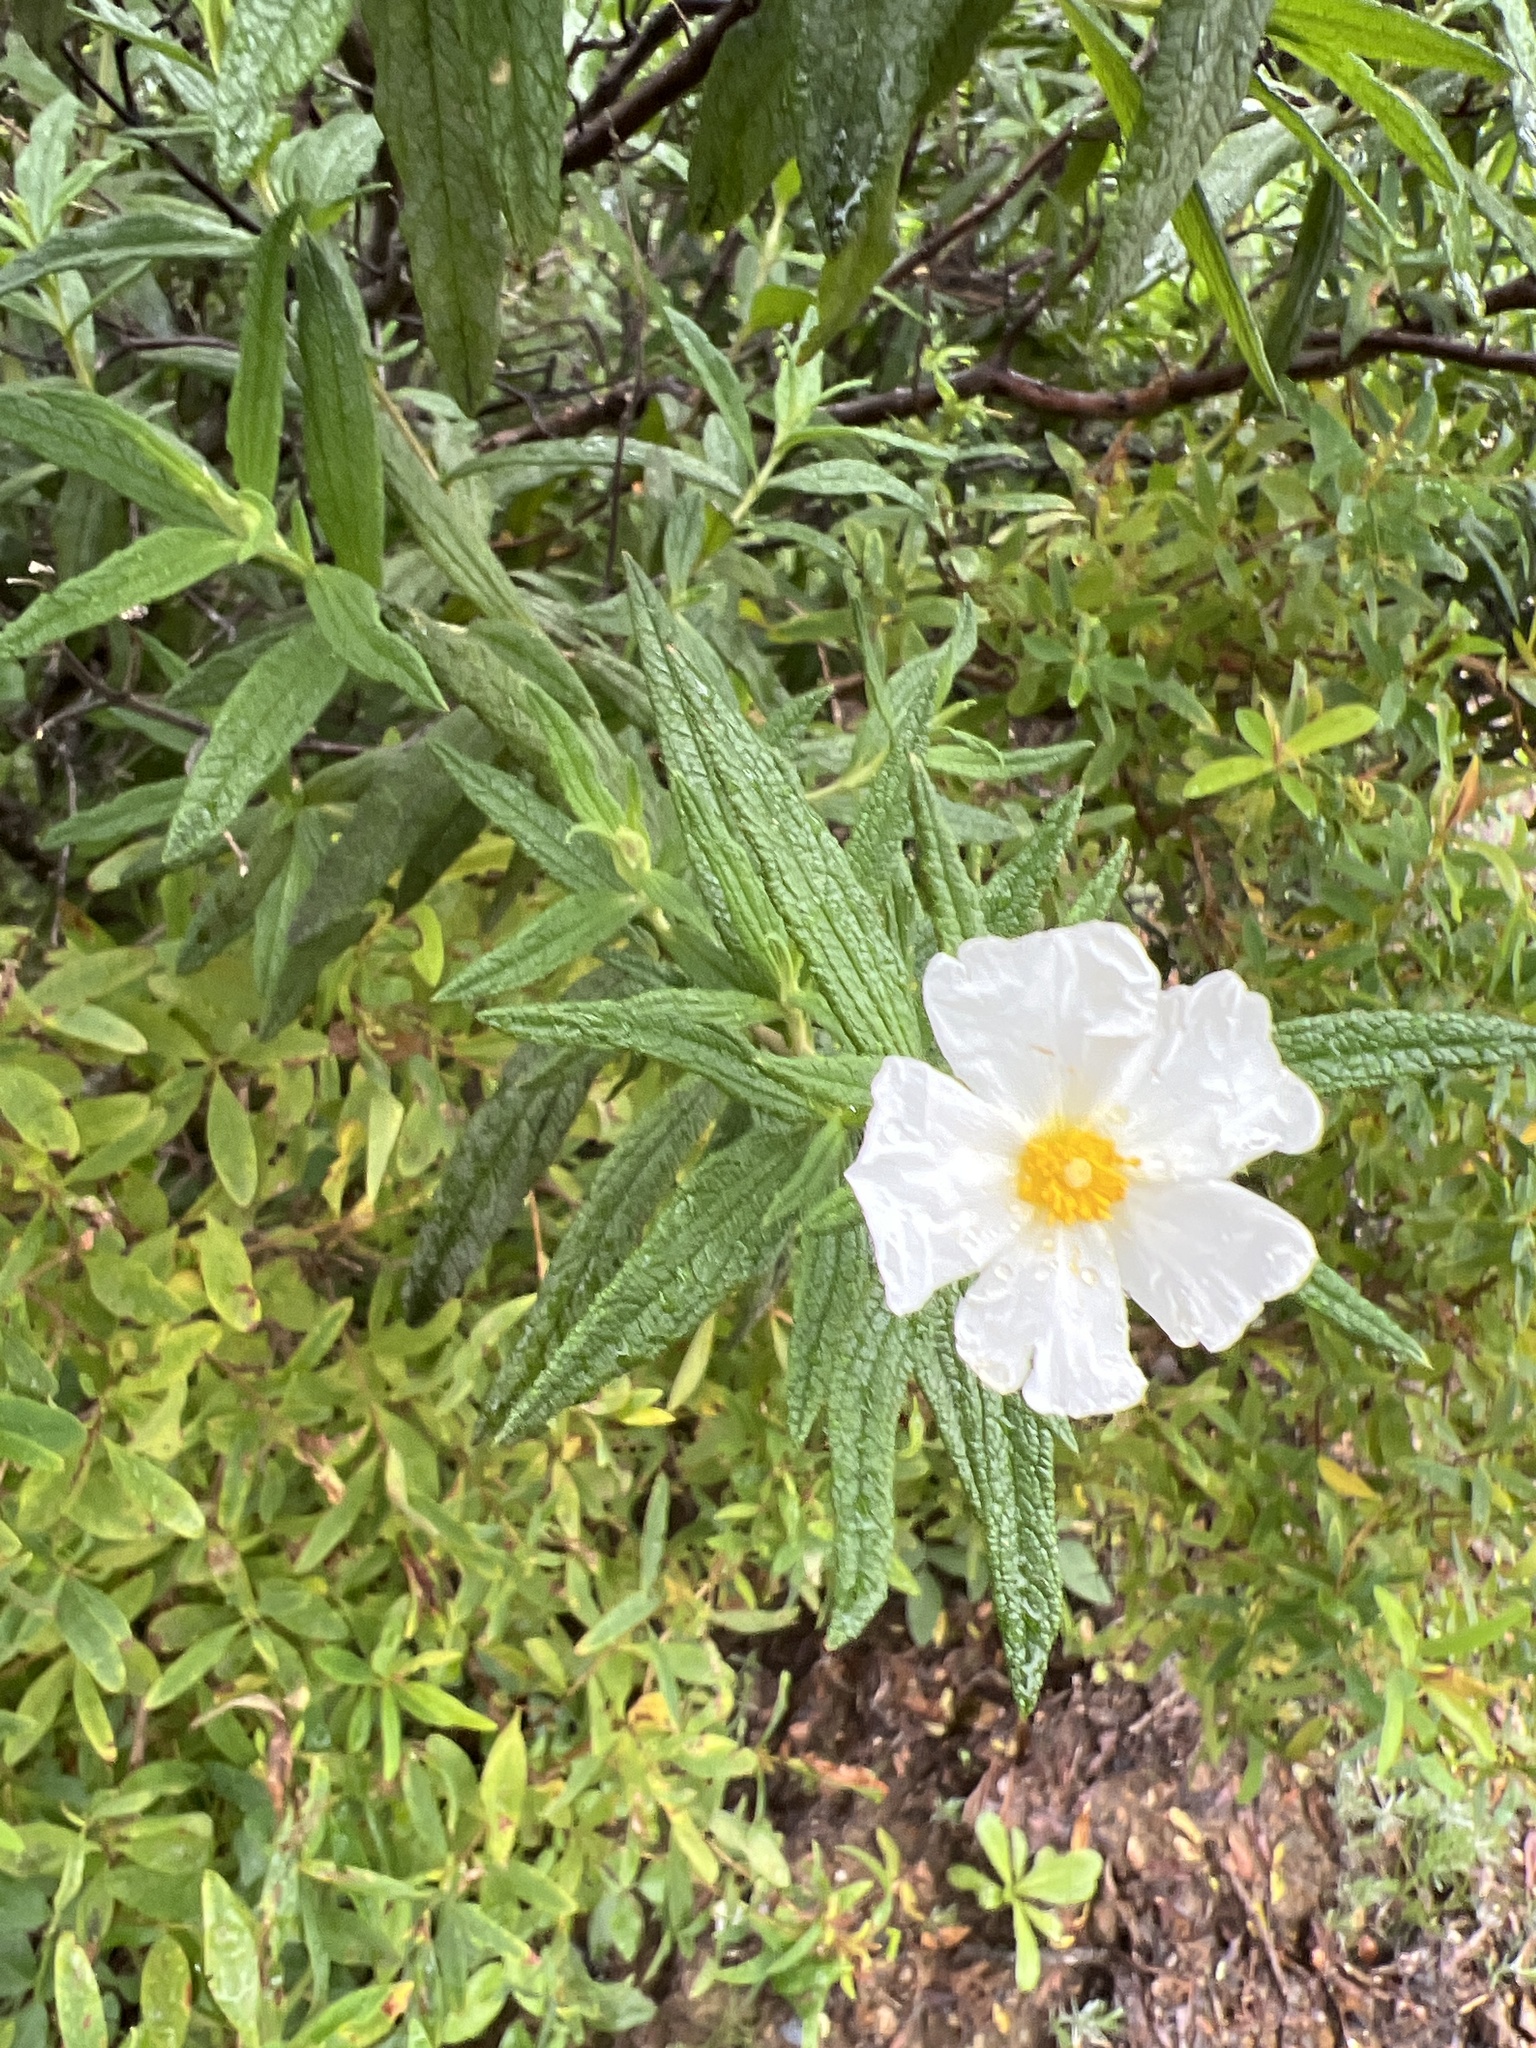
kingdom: Plantae
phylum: Tracheophyta
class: Magnoliopsida
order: Malvales
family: Cistaceae
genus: Cistus
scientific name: Cistus monspeliensis
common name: Montpelier cistus
